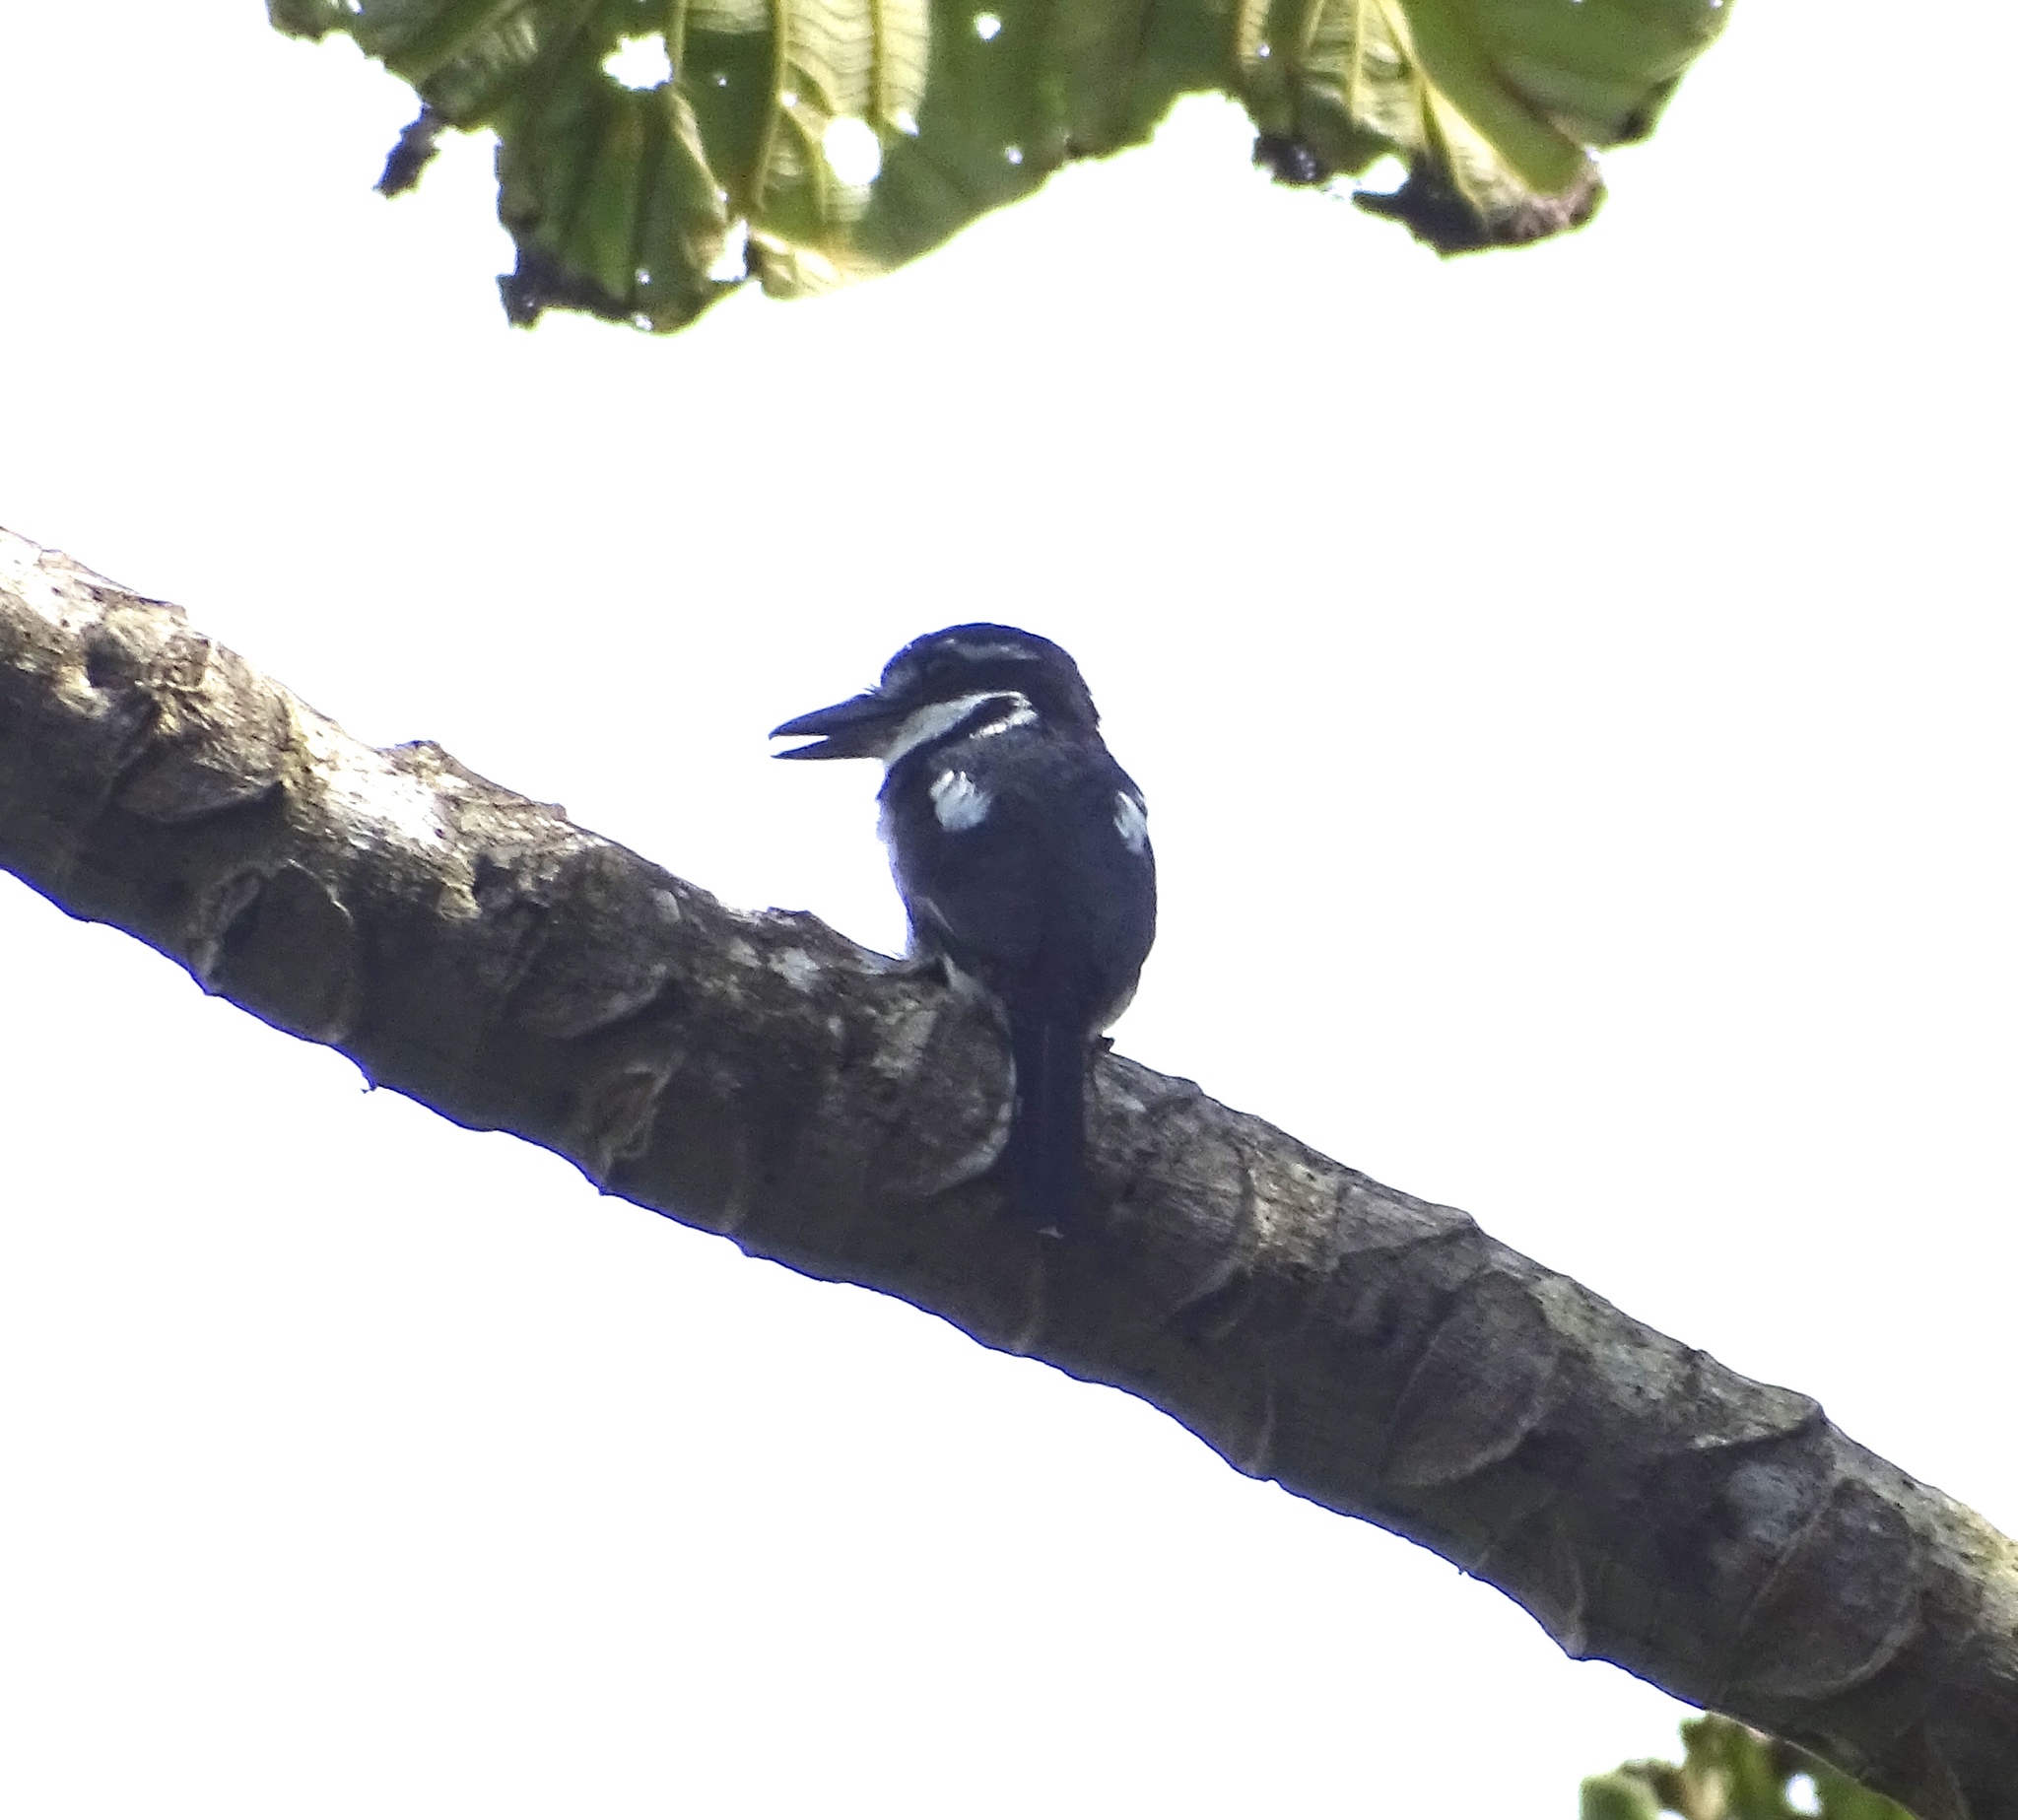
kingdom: Animalia
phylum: Chordata
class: Aves
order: Piciformes
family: Bucconidae
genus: Notharchus
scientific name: Notharchus tectus
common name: Pied puffbird
